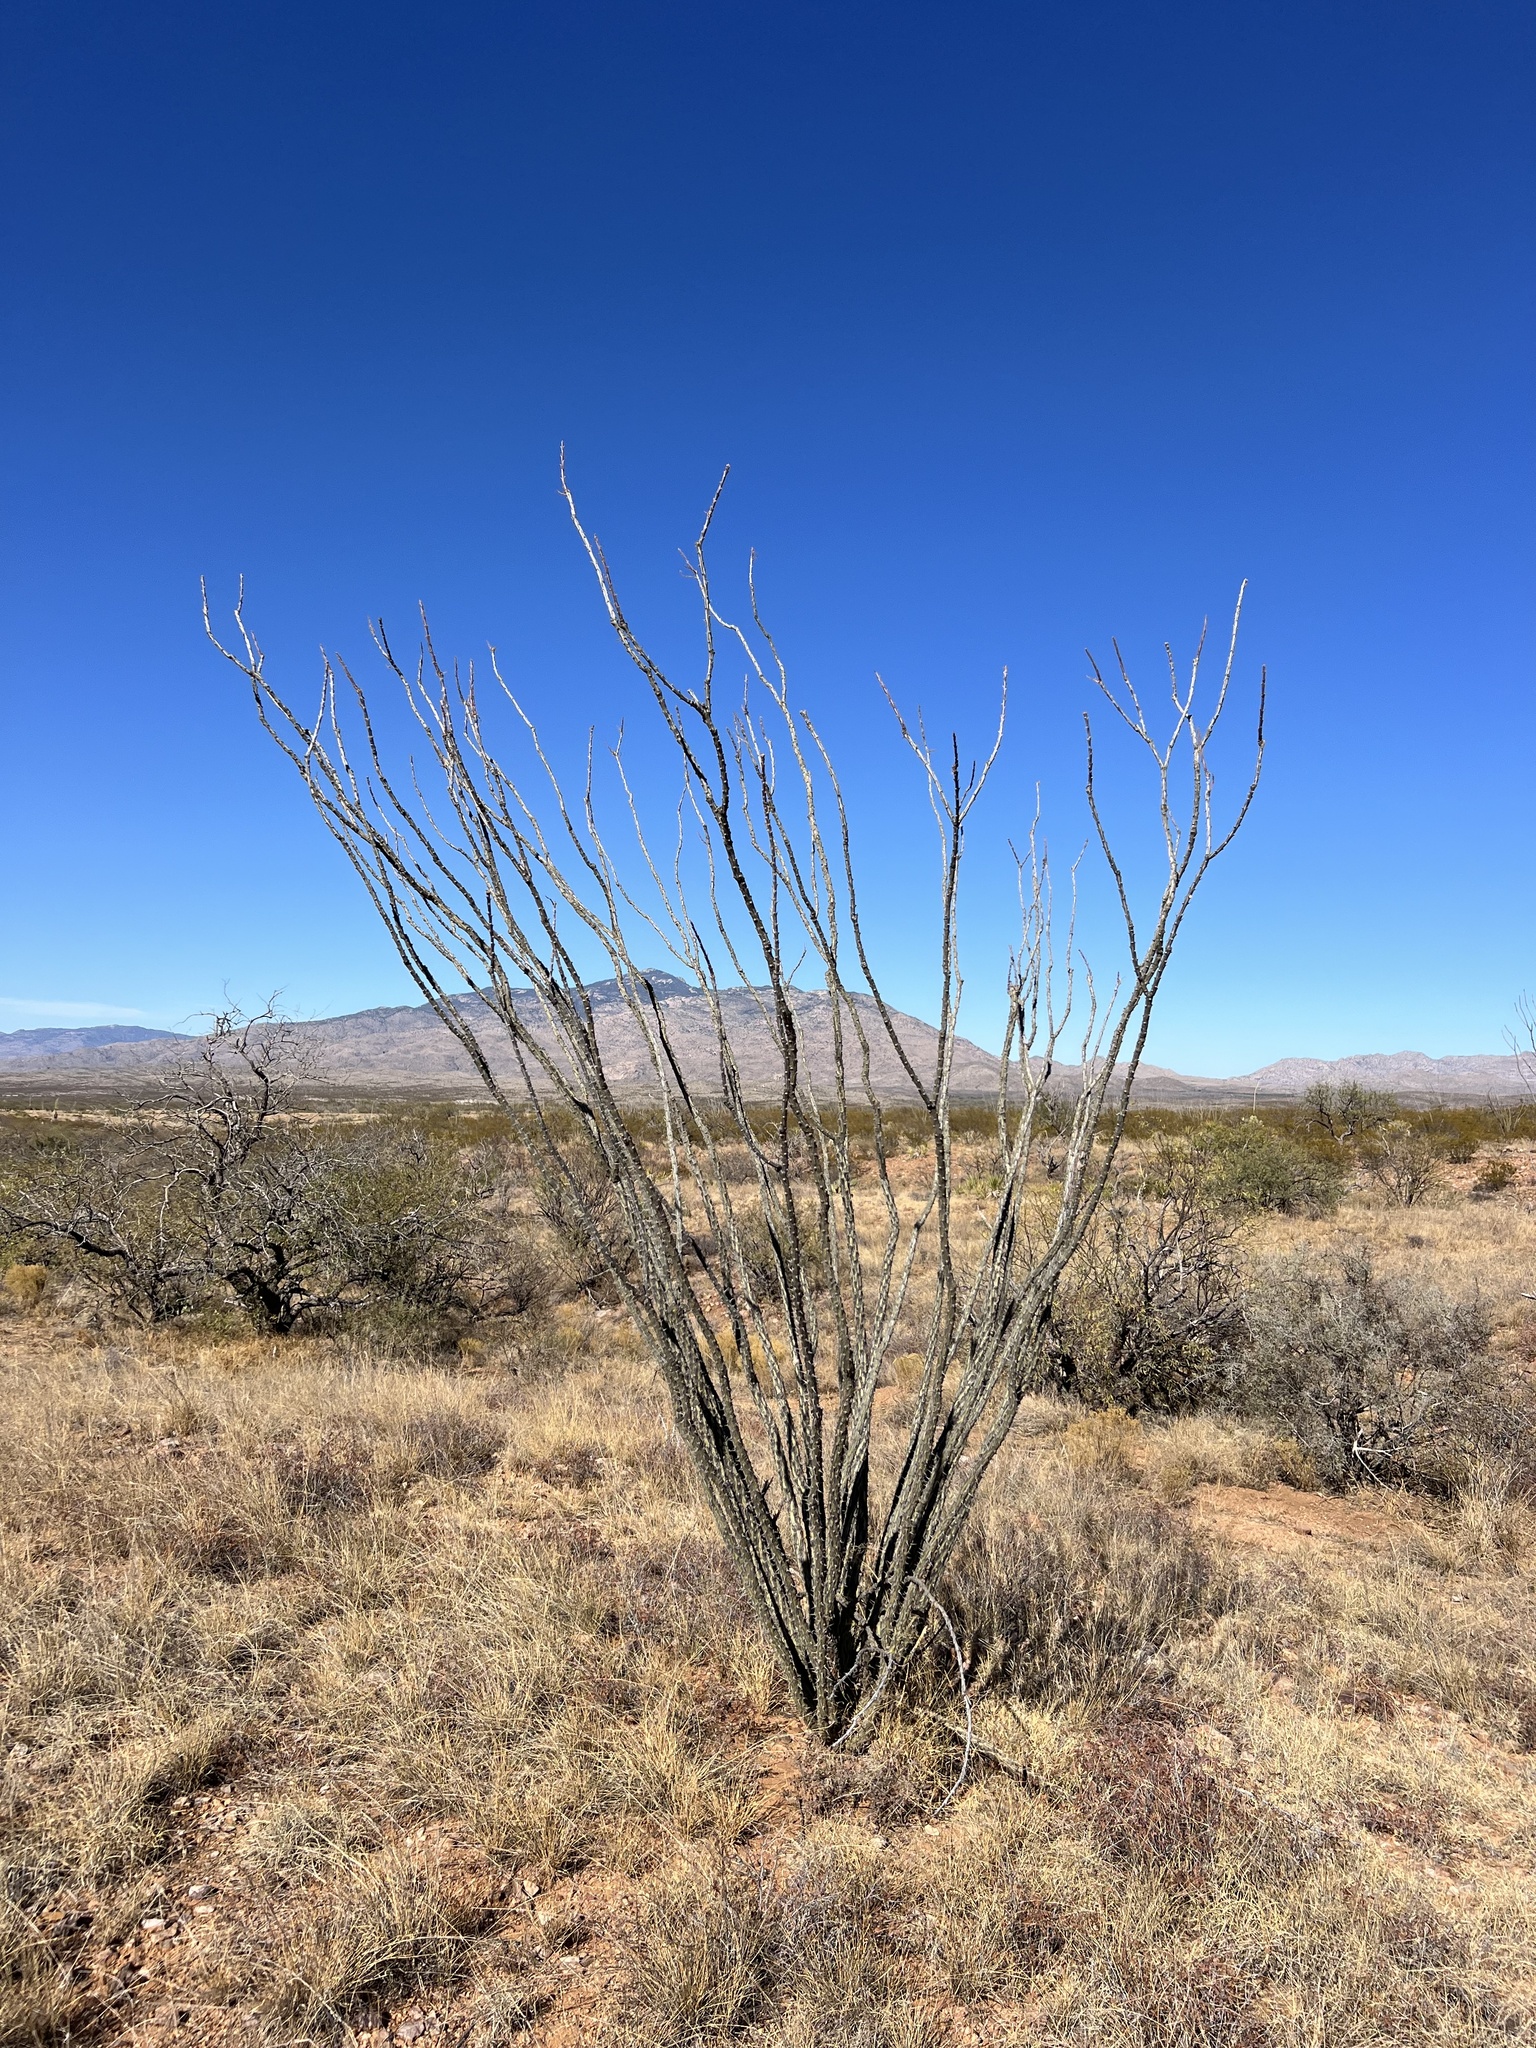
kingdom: Plantae
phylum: Tracheophyta
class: Magnoliopsida
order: Ericales
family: Fouquieriaceae
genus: Fouquieria
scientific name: Fouquieria splendens
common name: Vine-cactus
